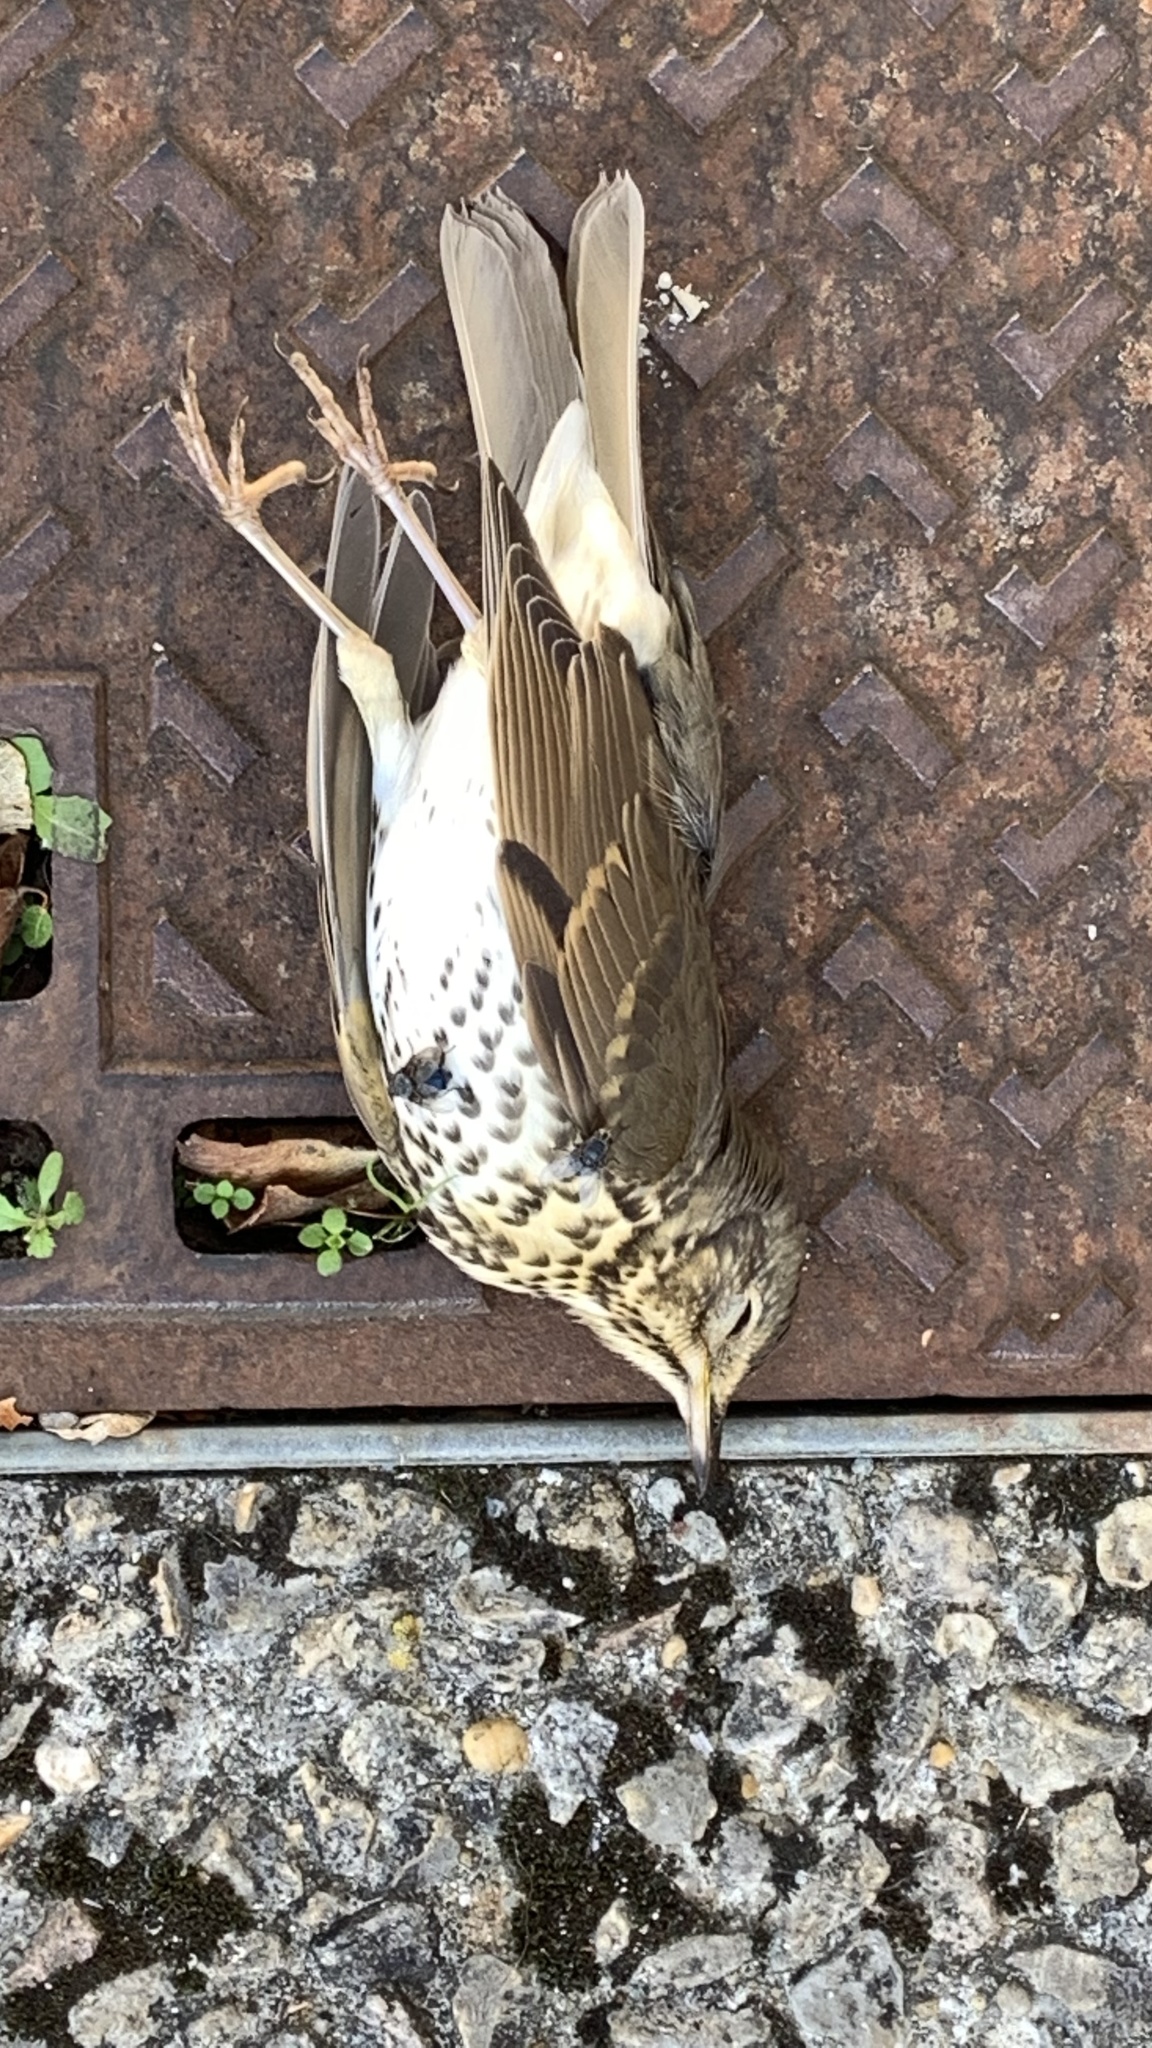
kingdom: Animalia
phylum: Chordata
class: Aves
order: Passeriformes
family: Turdidae
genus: Turdus
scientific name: Turdus philomelos
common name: Song thrush
